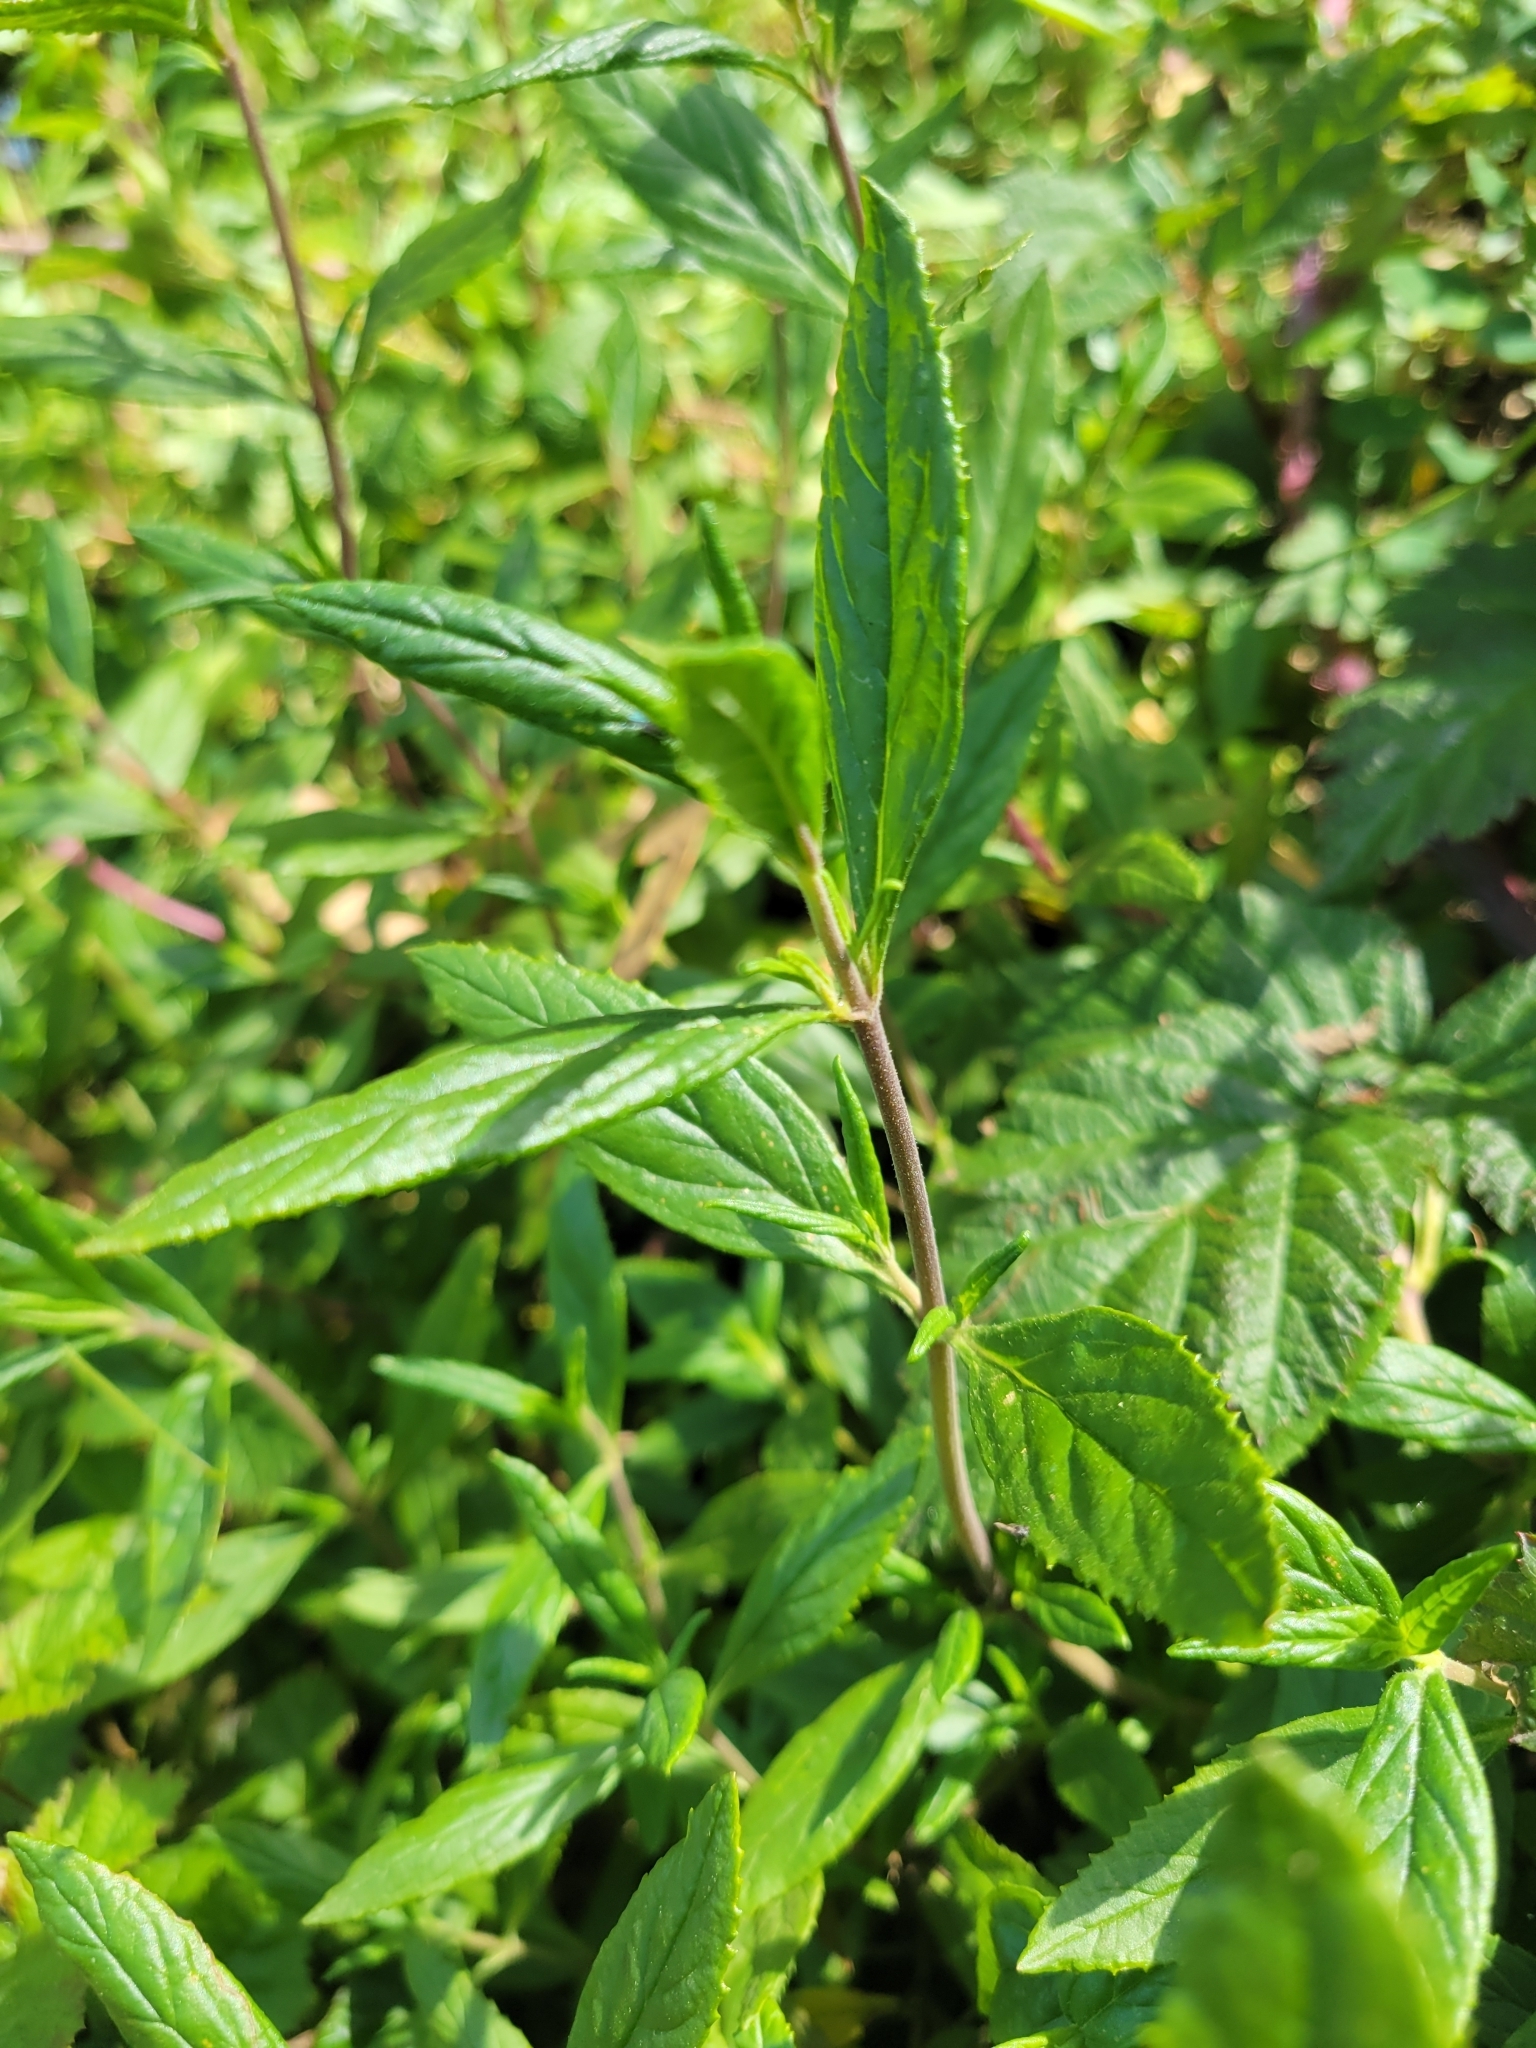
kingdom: Plantae
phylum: Tracheophyta
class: Magnoliopsida
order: Lamiales
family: Phrymaceae
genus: Diplacus
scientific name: Diplacus aurantiacus
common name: Bush monkey-flower
